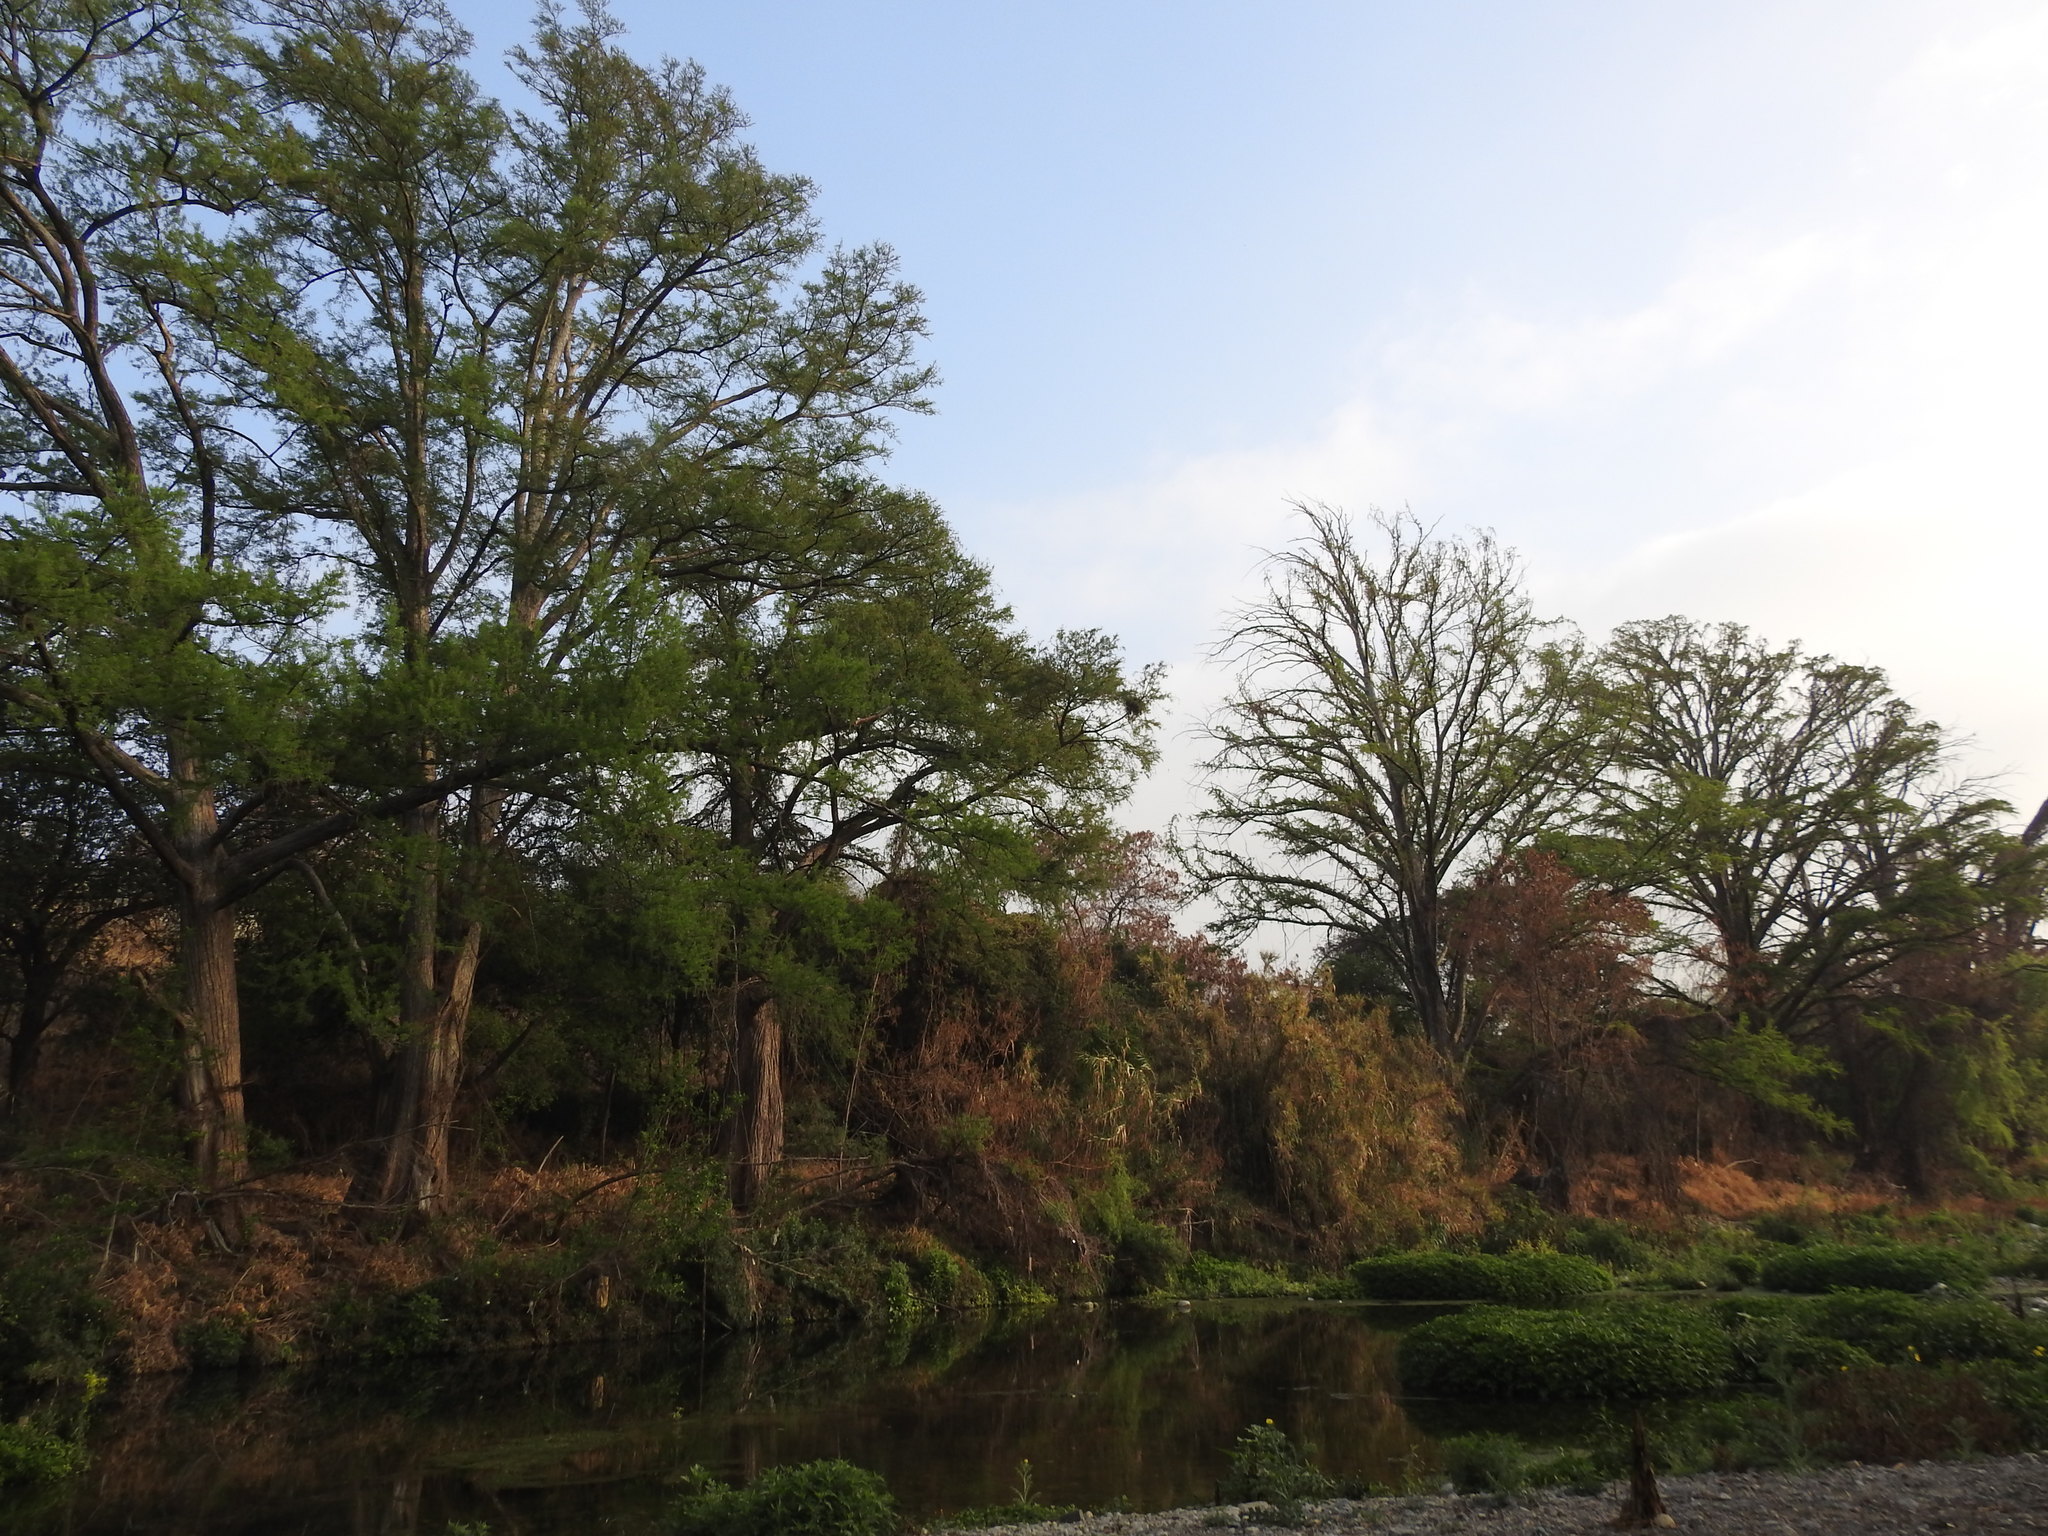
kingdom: Plantae
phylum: Tracheophyta
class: Pinopsida
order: Pinales
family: Cupressaceae
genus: Taxodium
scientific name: Taxodium mucronatum
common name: Montezume bald cypress
